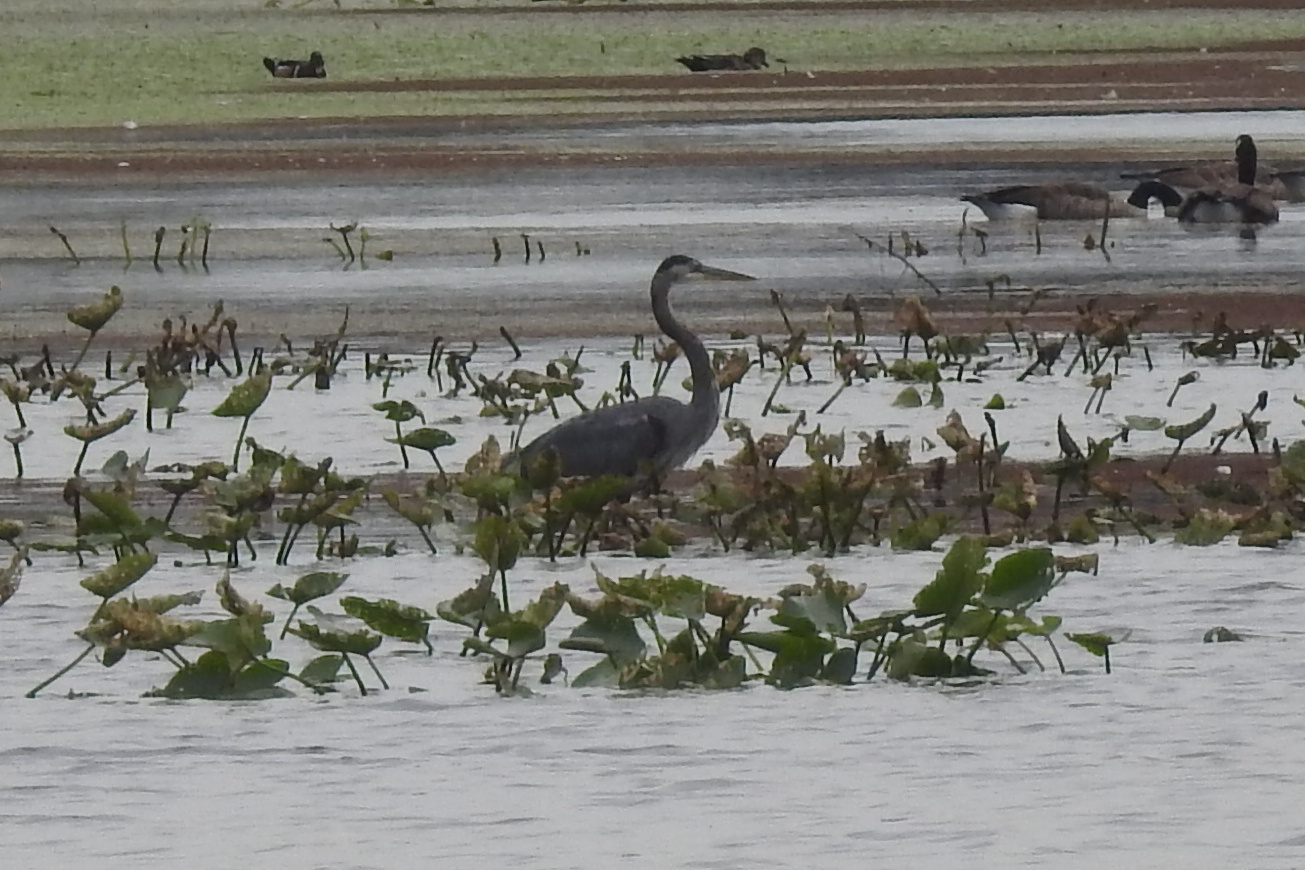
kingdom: Animalia
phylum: Chordata
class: Aves
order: Pelecaniformes
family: Ardeidae
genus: Ardea
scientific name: Ardea herodias
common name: Great blue heron
